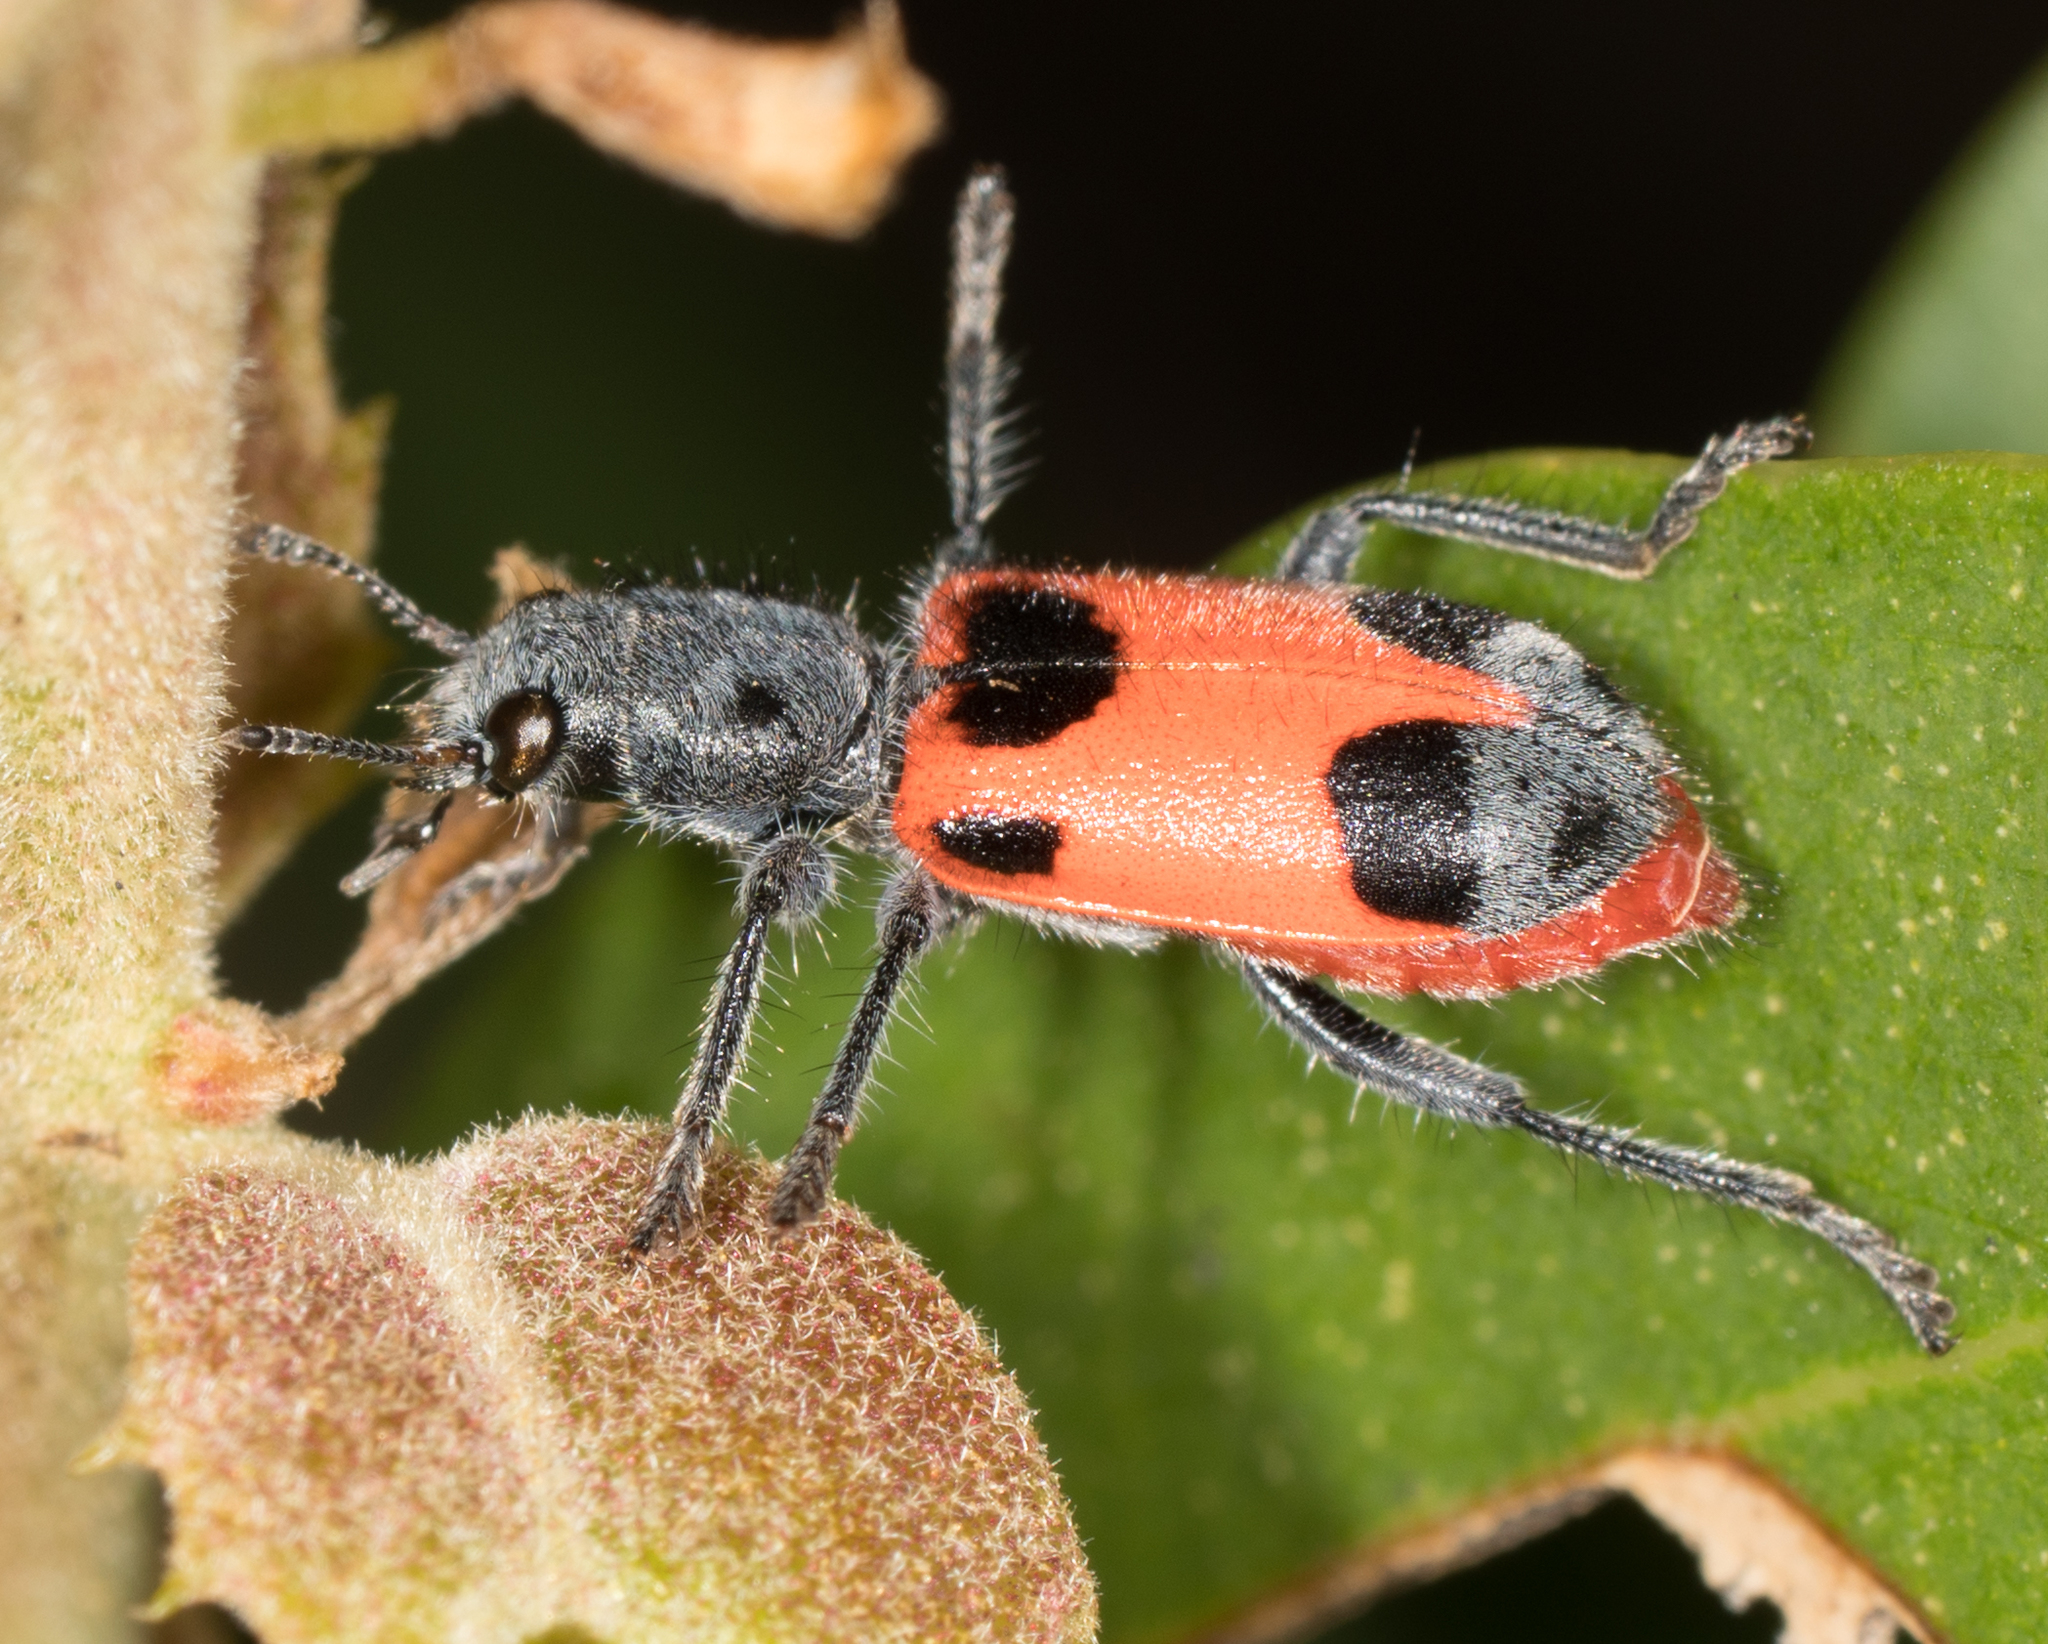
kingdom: Animalia
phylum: Arthropoda
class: Insecta
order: Coleoptera
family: Cleridae
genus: Enoclerus
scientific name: Enoclerus eximius
